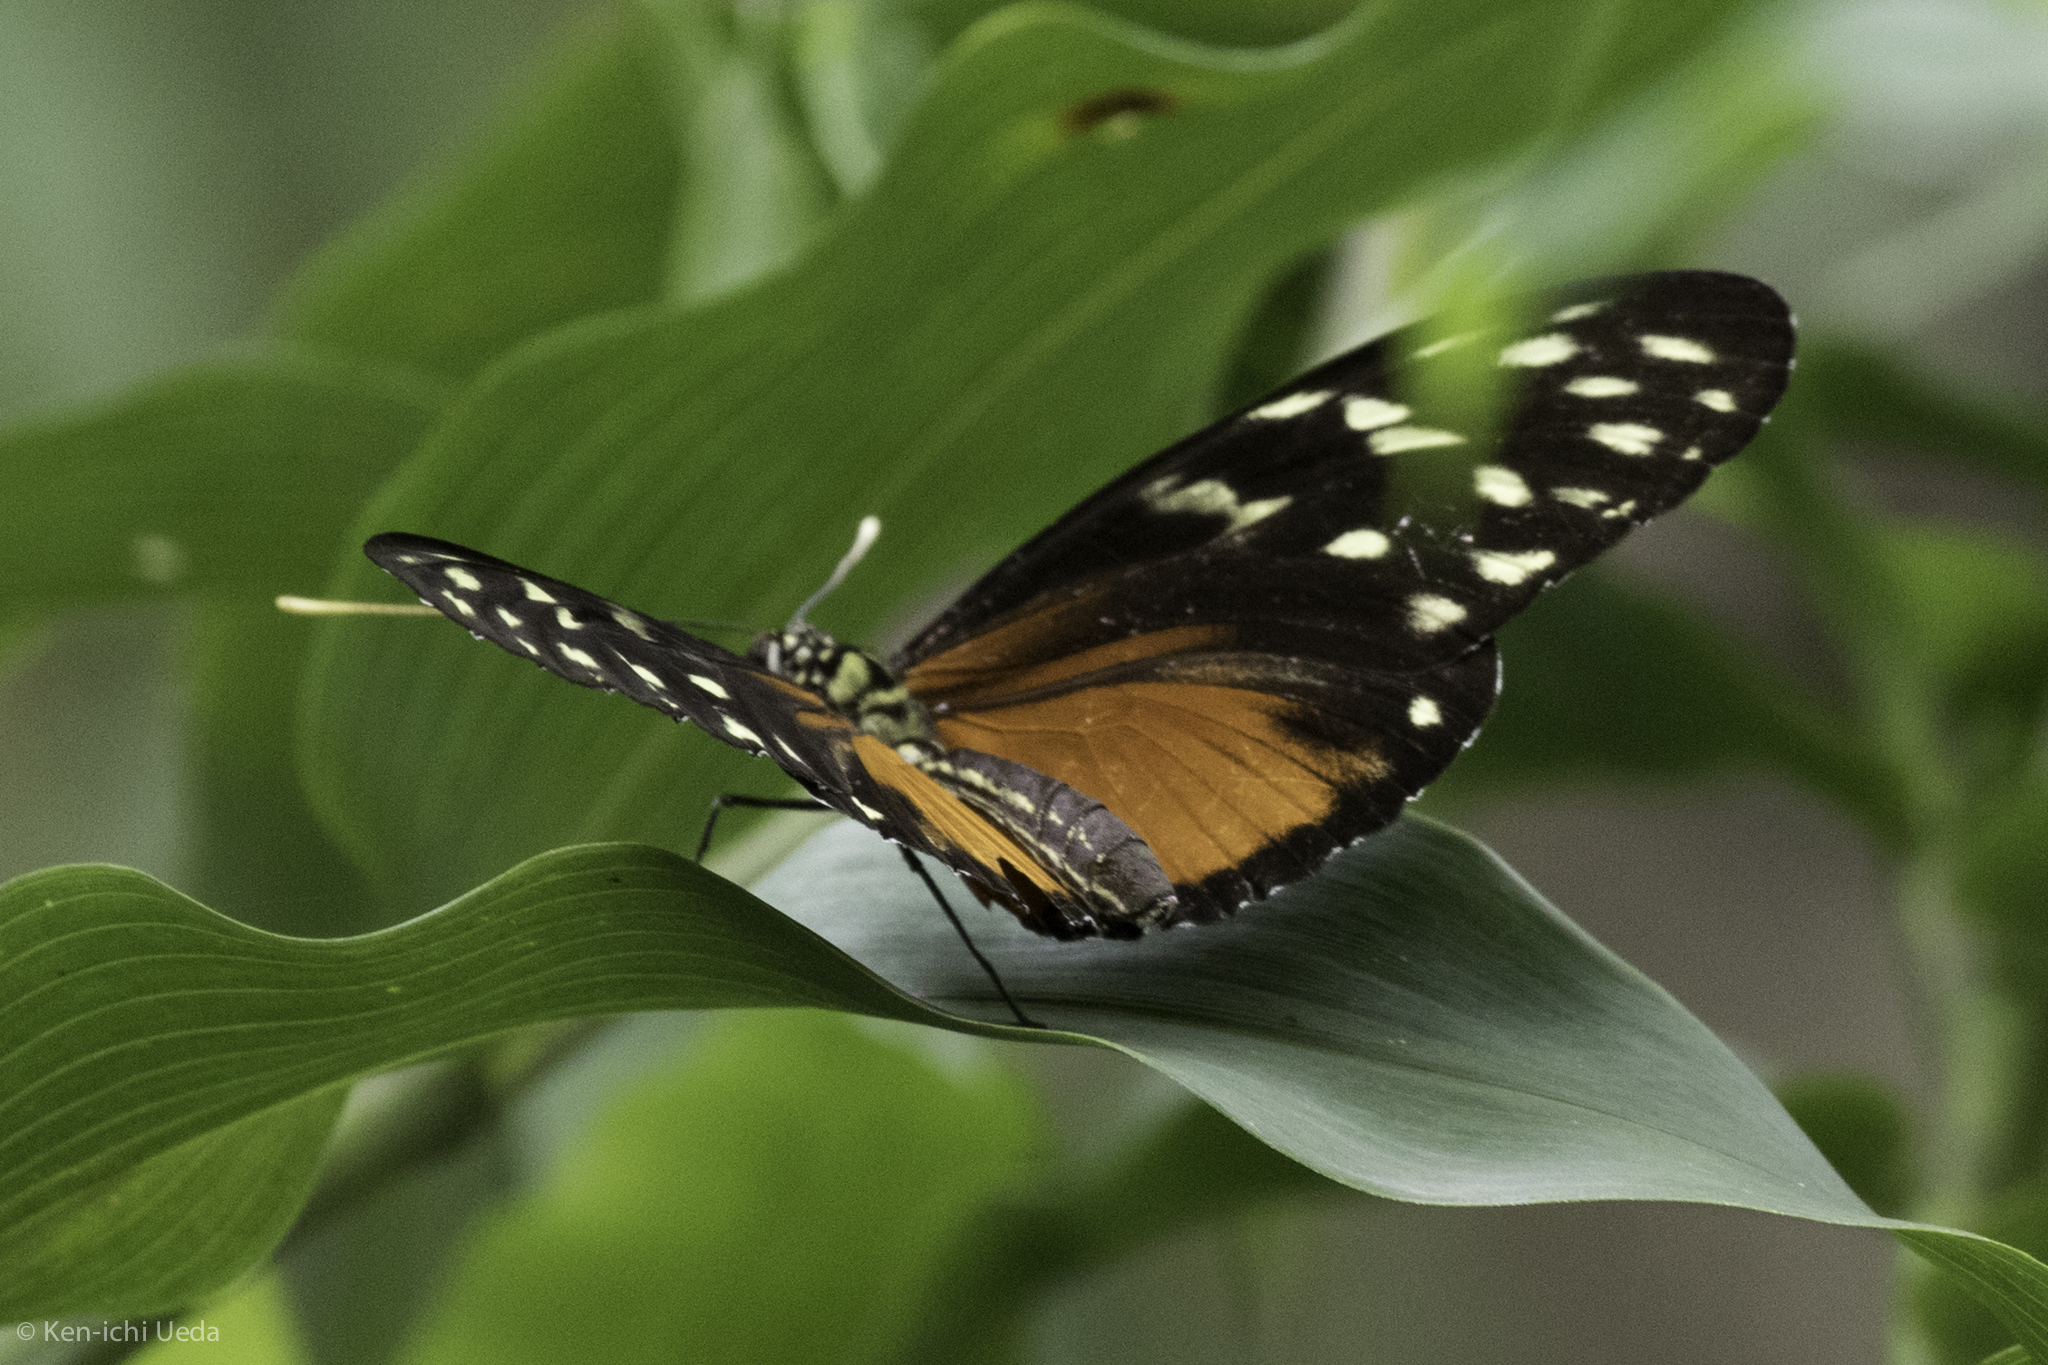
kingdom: Animalia
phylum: Arthropoda
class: Insecta
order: Lepidoptera
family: Nymphalidae
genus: Heliconius
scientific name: Heliconius hecale
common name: Tiger longwing
